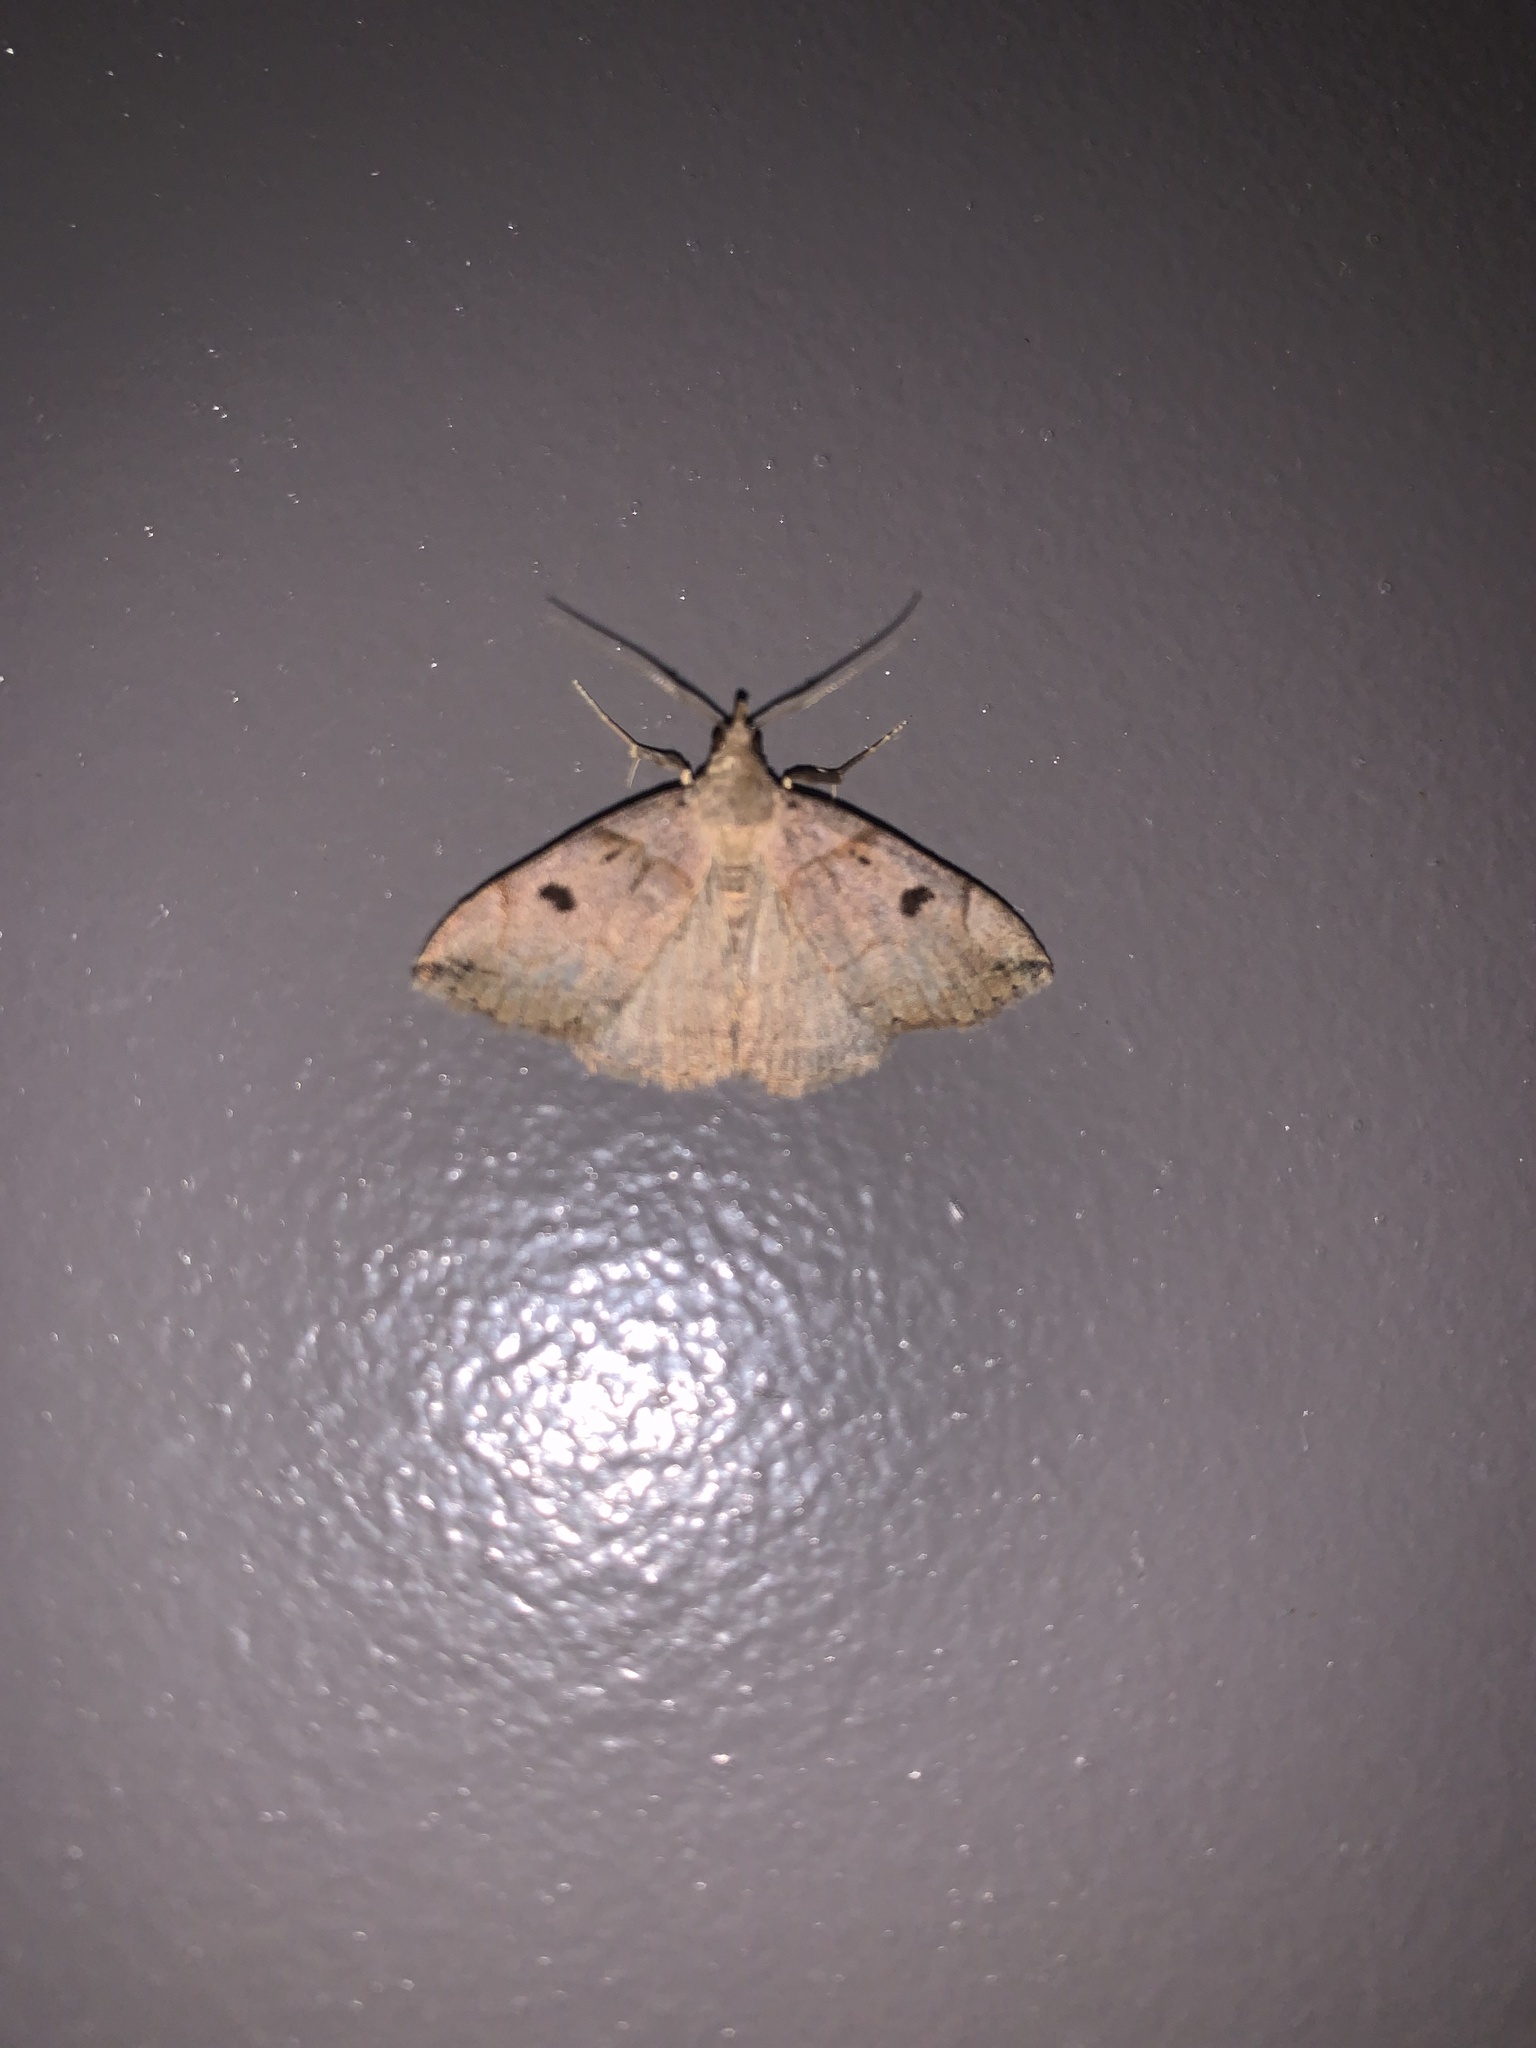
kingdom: Animalia
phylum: Arthropoda
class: Insecta
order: Lepidoptera
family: Erebidae
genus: Zanclognatha
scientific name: Zanclognatha laevigata
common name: Variable fan-foot
